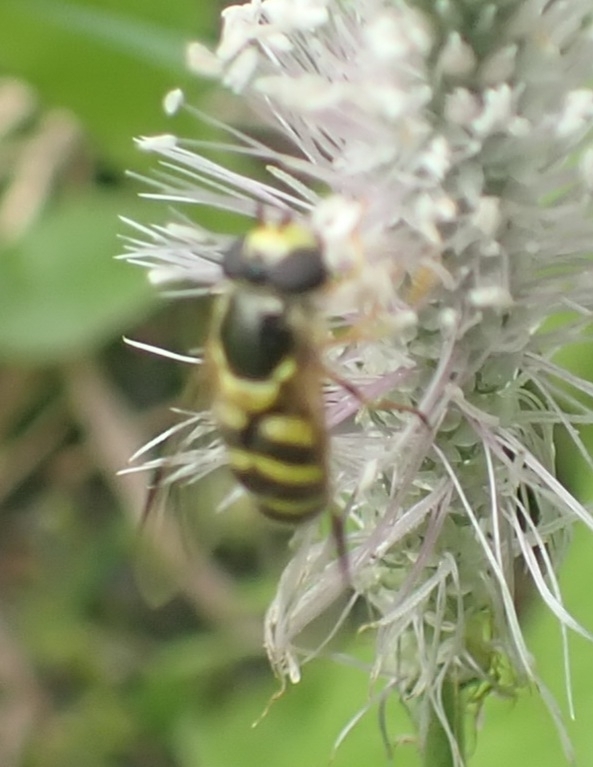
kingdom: Animalia
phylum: Arthropoda
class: Insecta
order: Diptera
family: Syrphidae
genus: Dasysyrphus
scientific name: Dasysyrphus albostriatus
